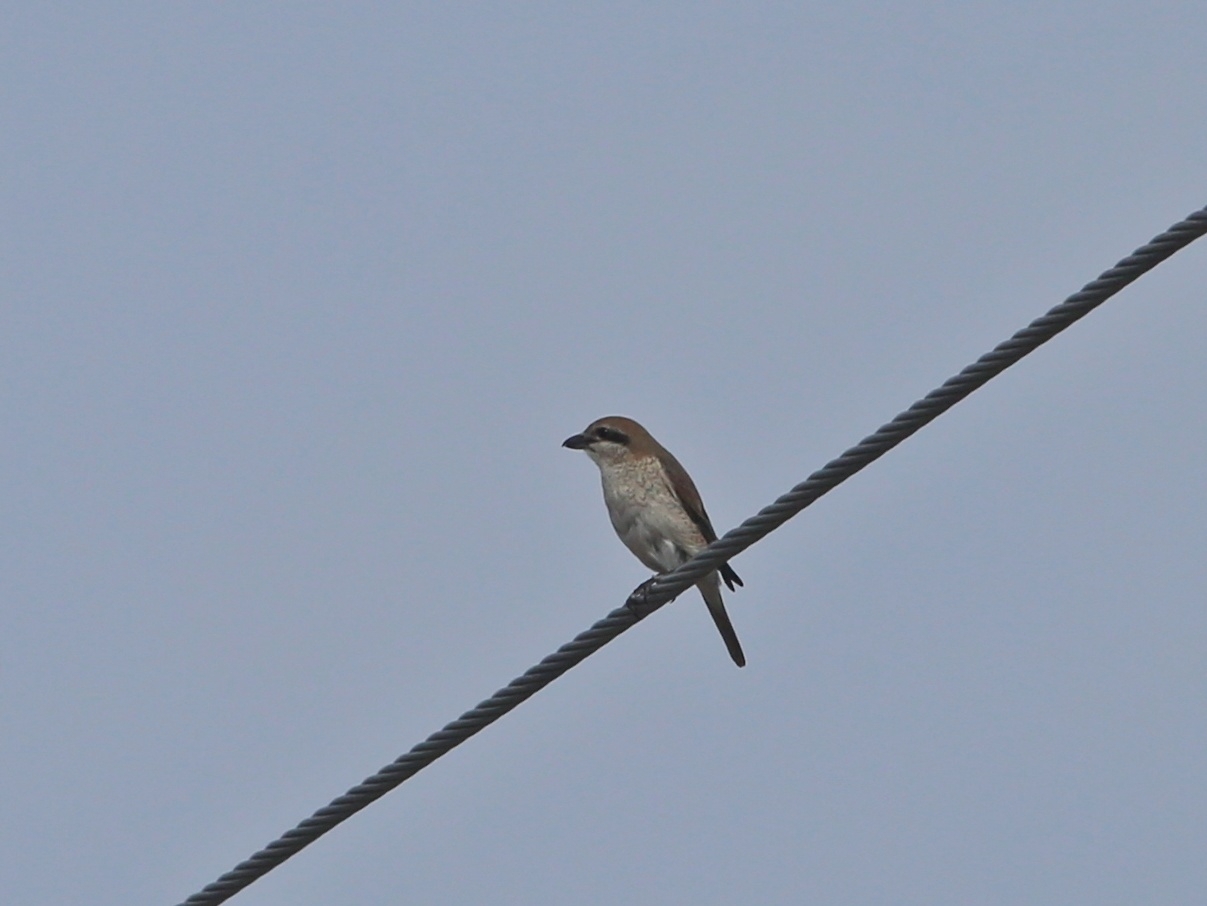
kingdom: Animalia
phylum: Chordata
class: Aves
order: Passeriformes
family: Laniidae
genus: Lanius
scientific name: Lanius phoenicuroides
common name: Red-tailed shrike
